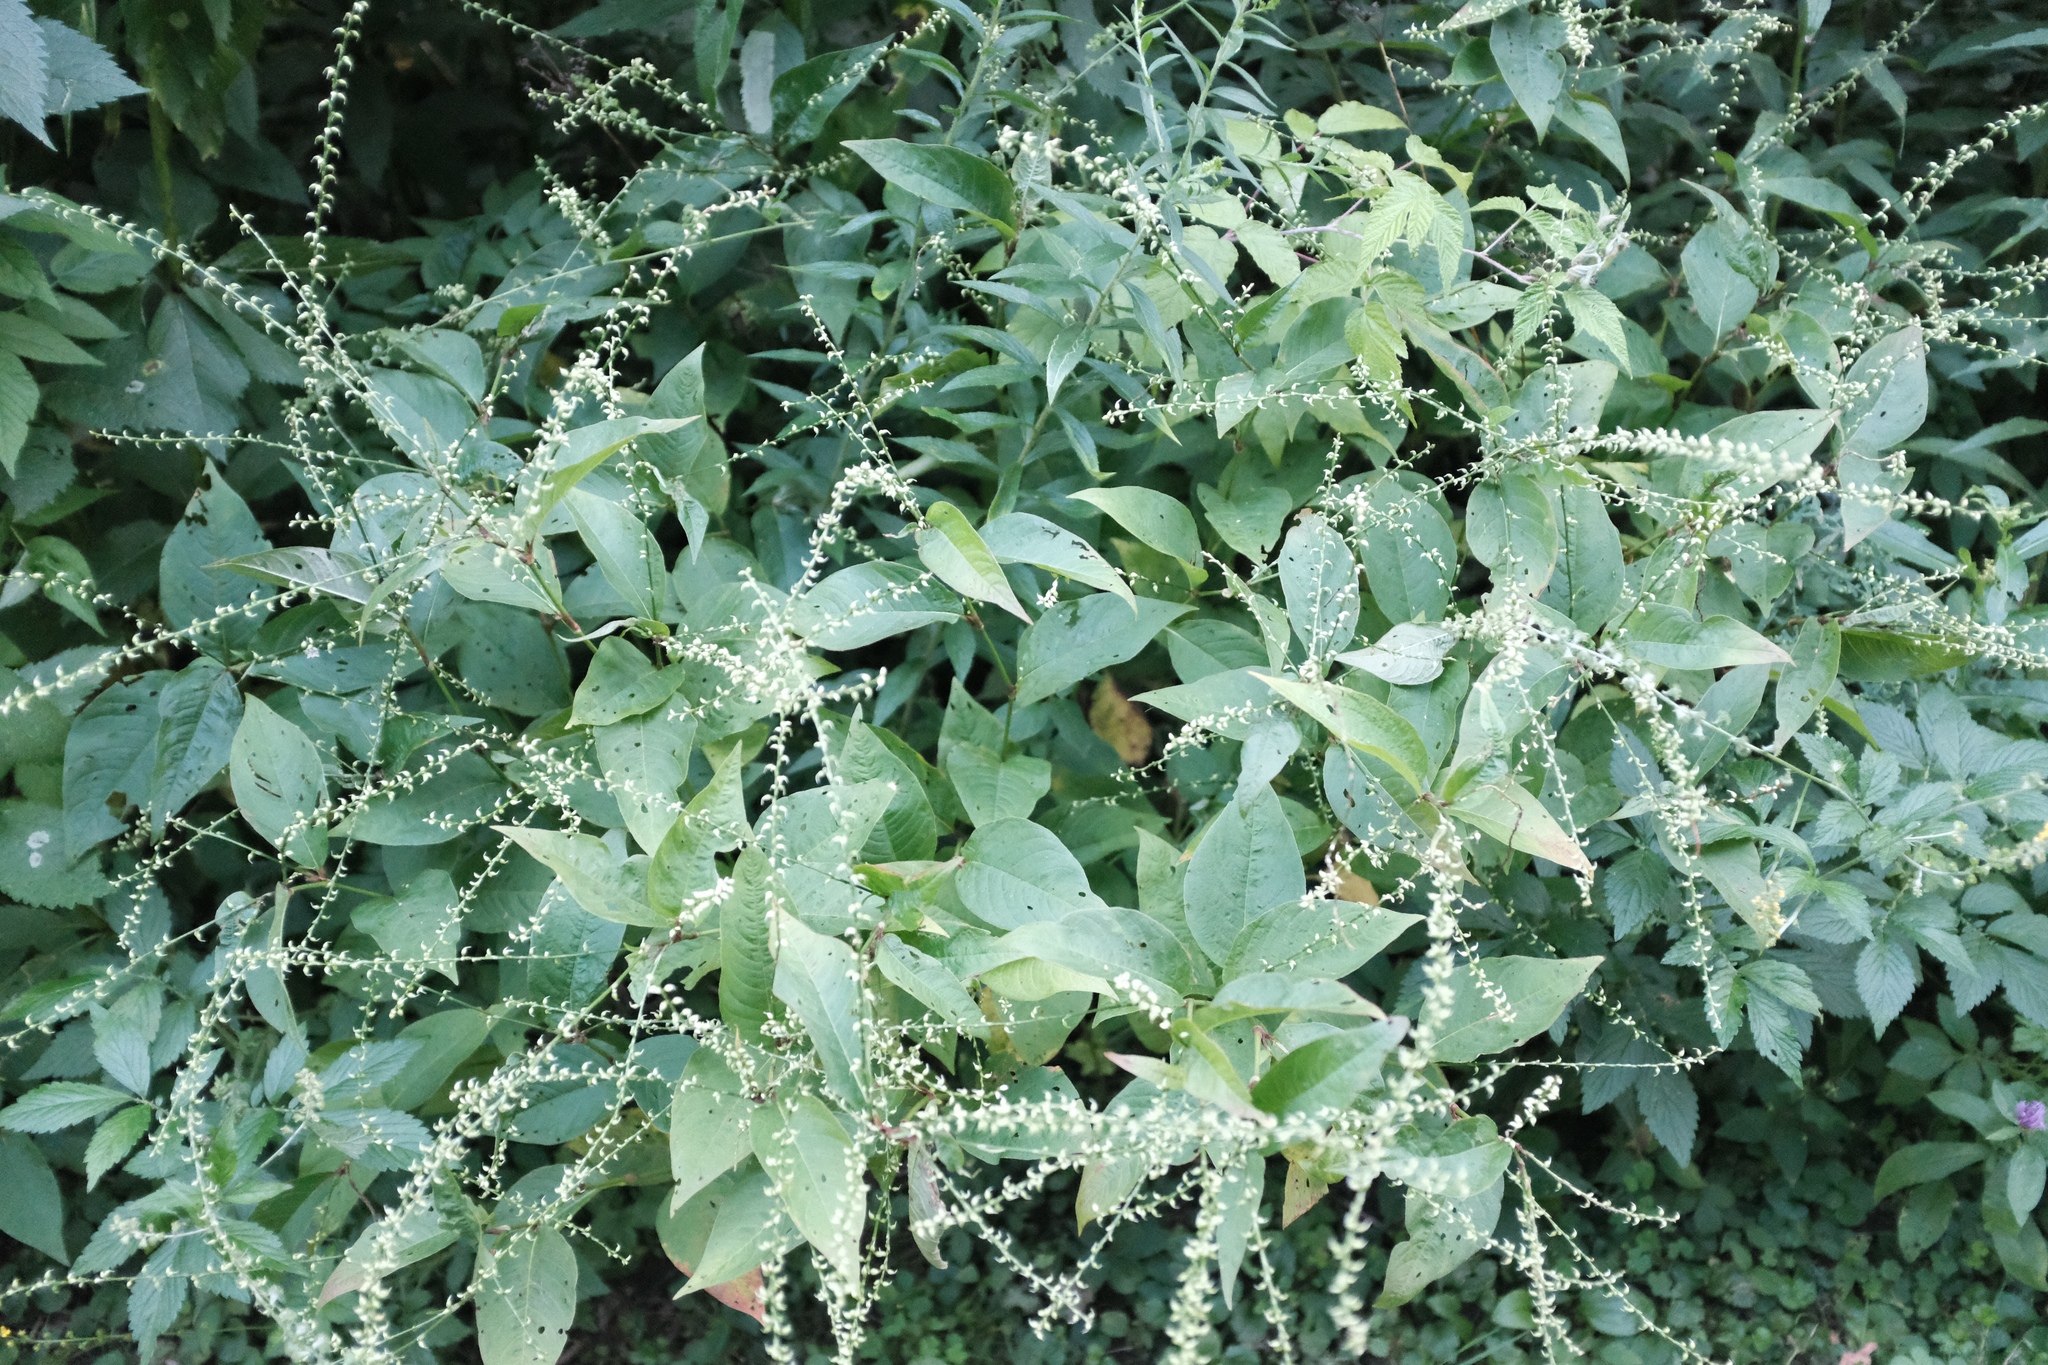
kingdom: Plantae
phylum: Tracheophyta
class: Magnoliopsida
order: Caryophyllales
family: Polygonaceae
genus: Persicaria
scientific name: Persicaria virginiana
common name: Jumpseed
